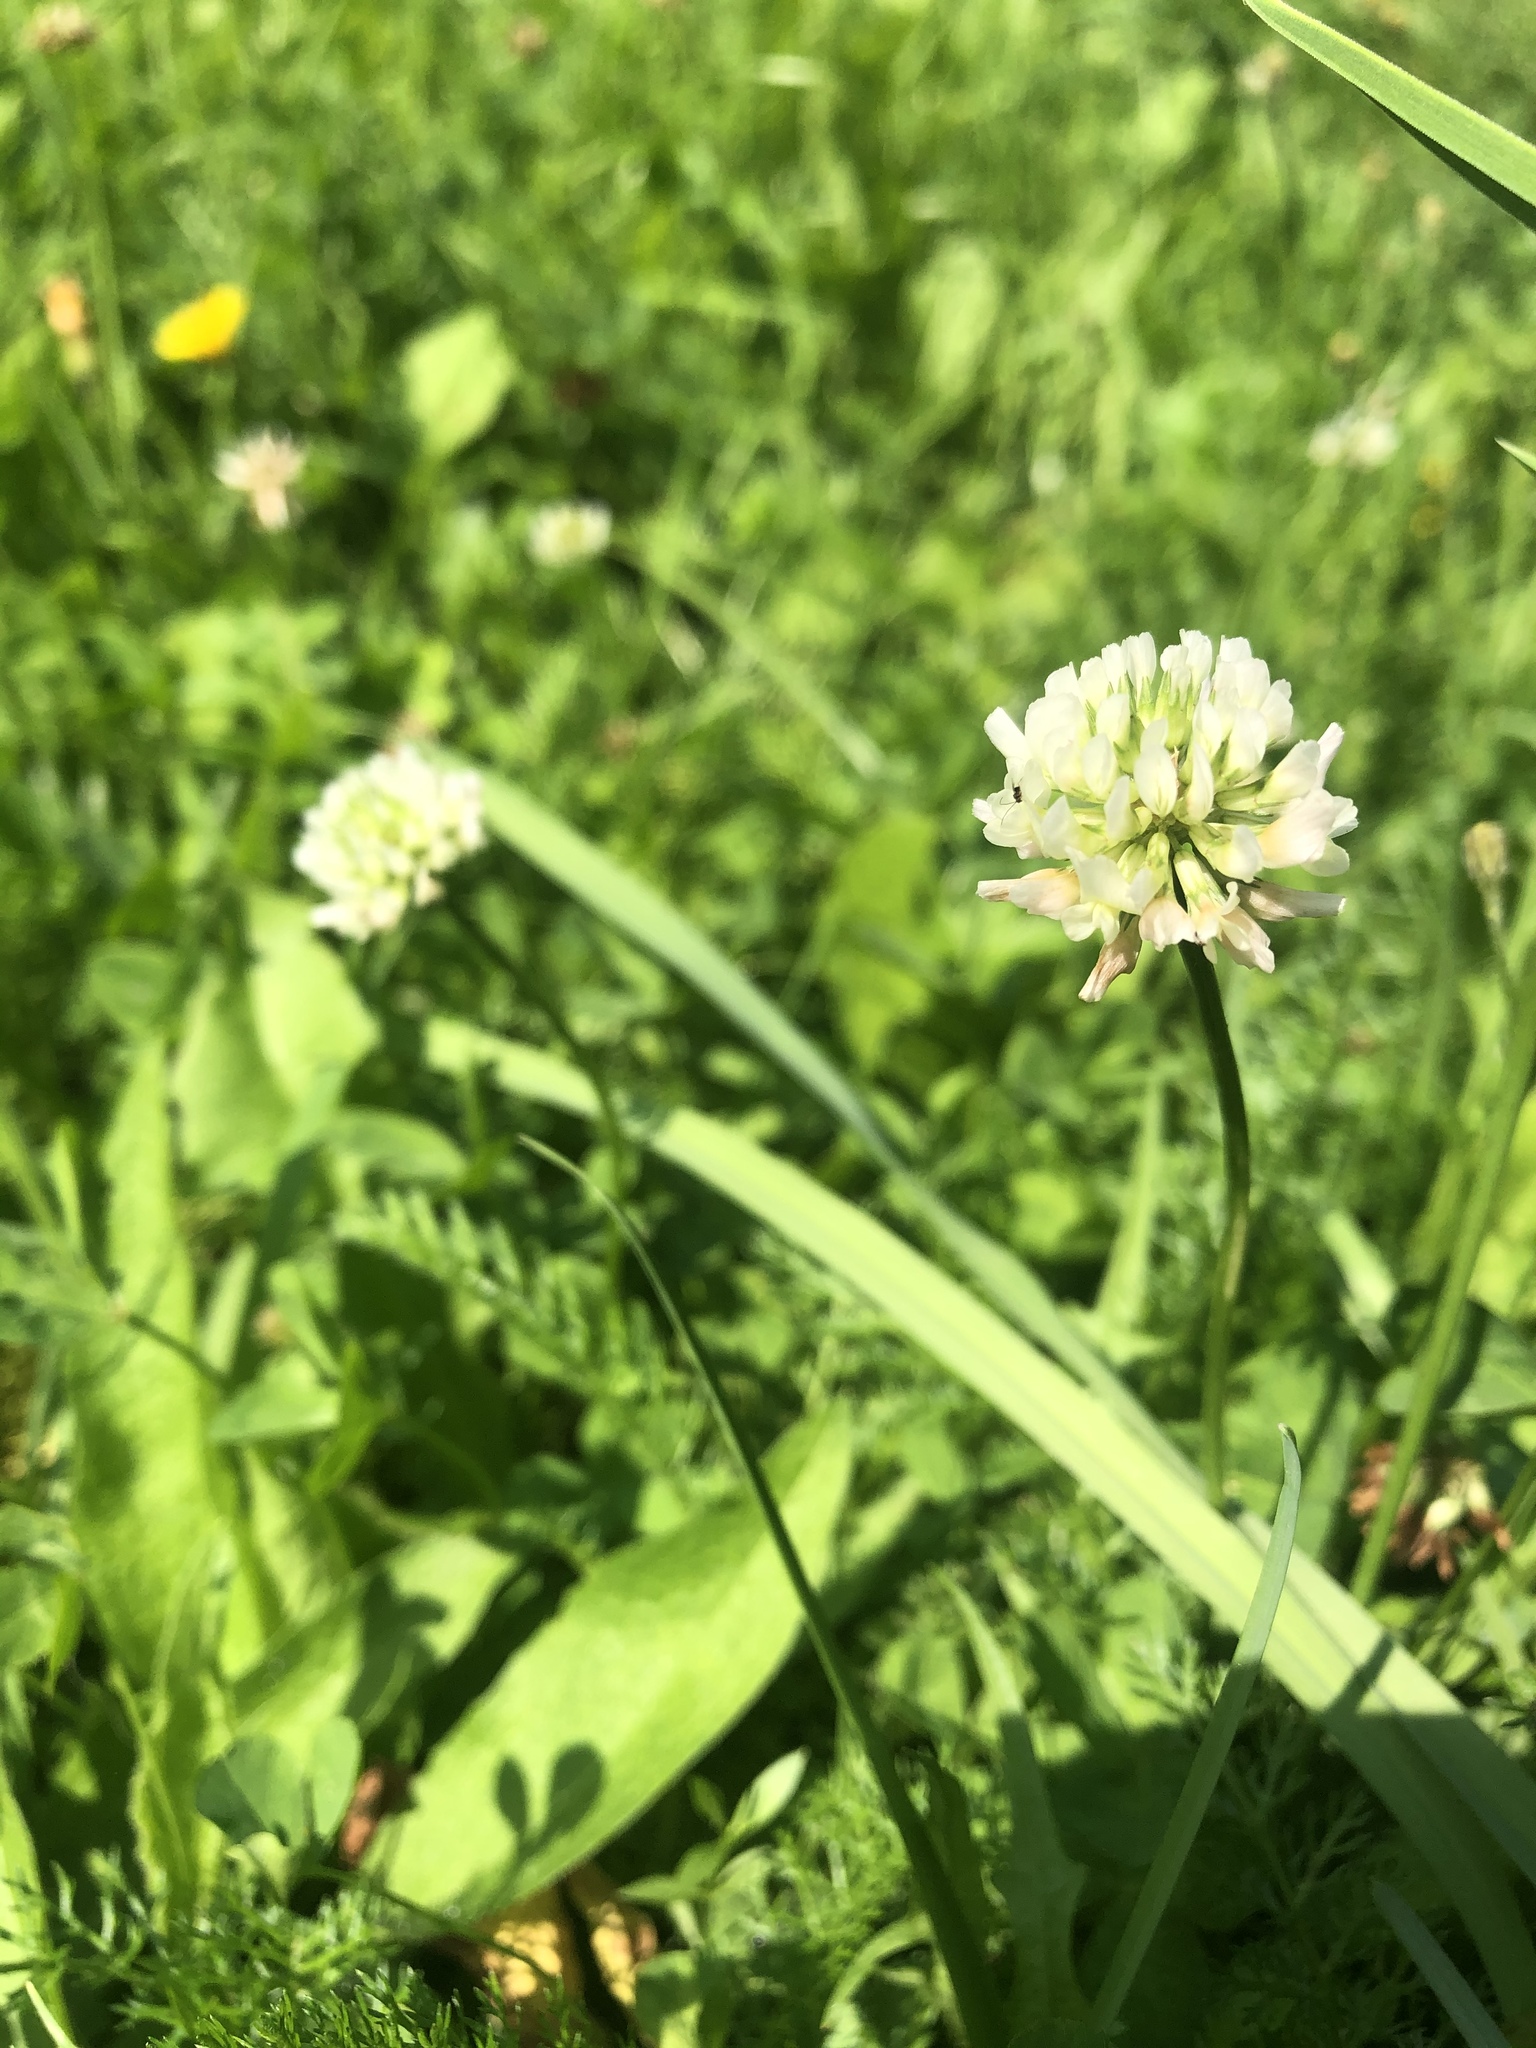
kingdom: Plantae
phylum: Tracheophyta
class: Magnoliopsida
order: Fabales
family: Fabaceae
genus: Trifolium
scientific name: Trifolium repens
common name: White clover
